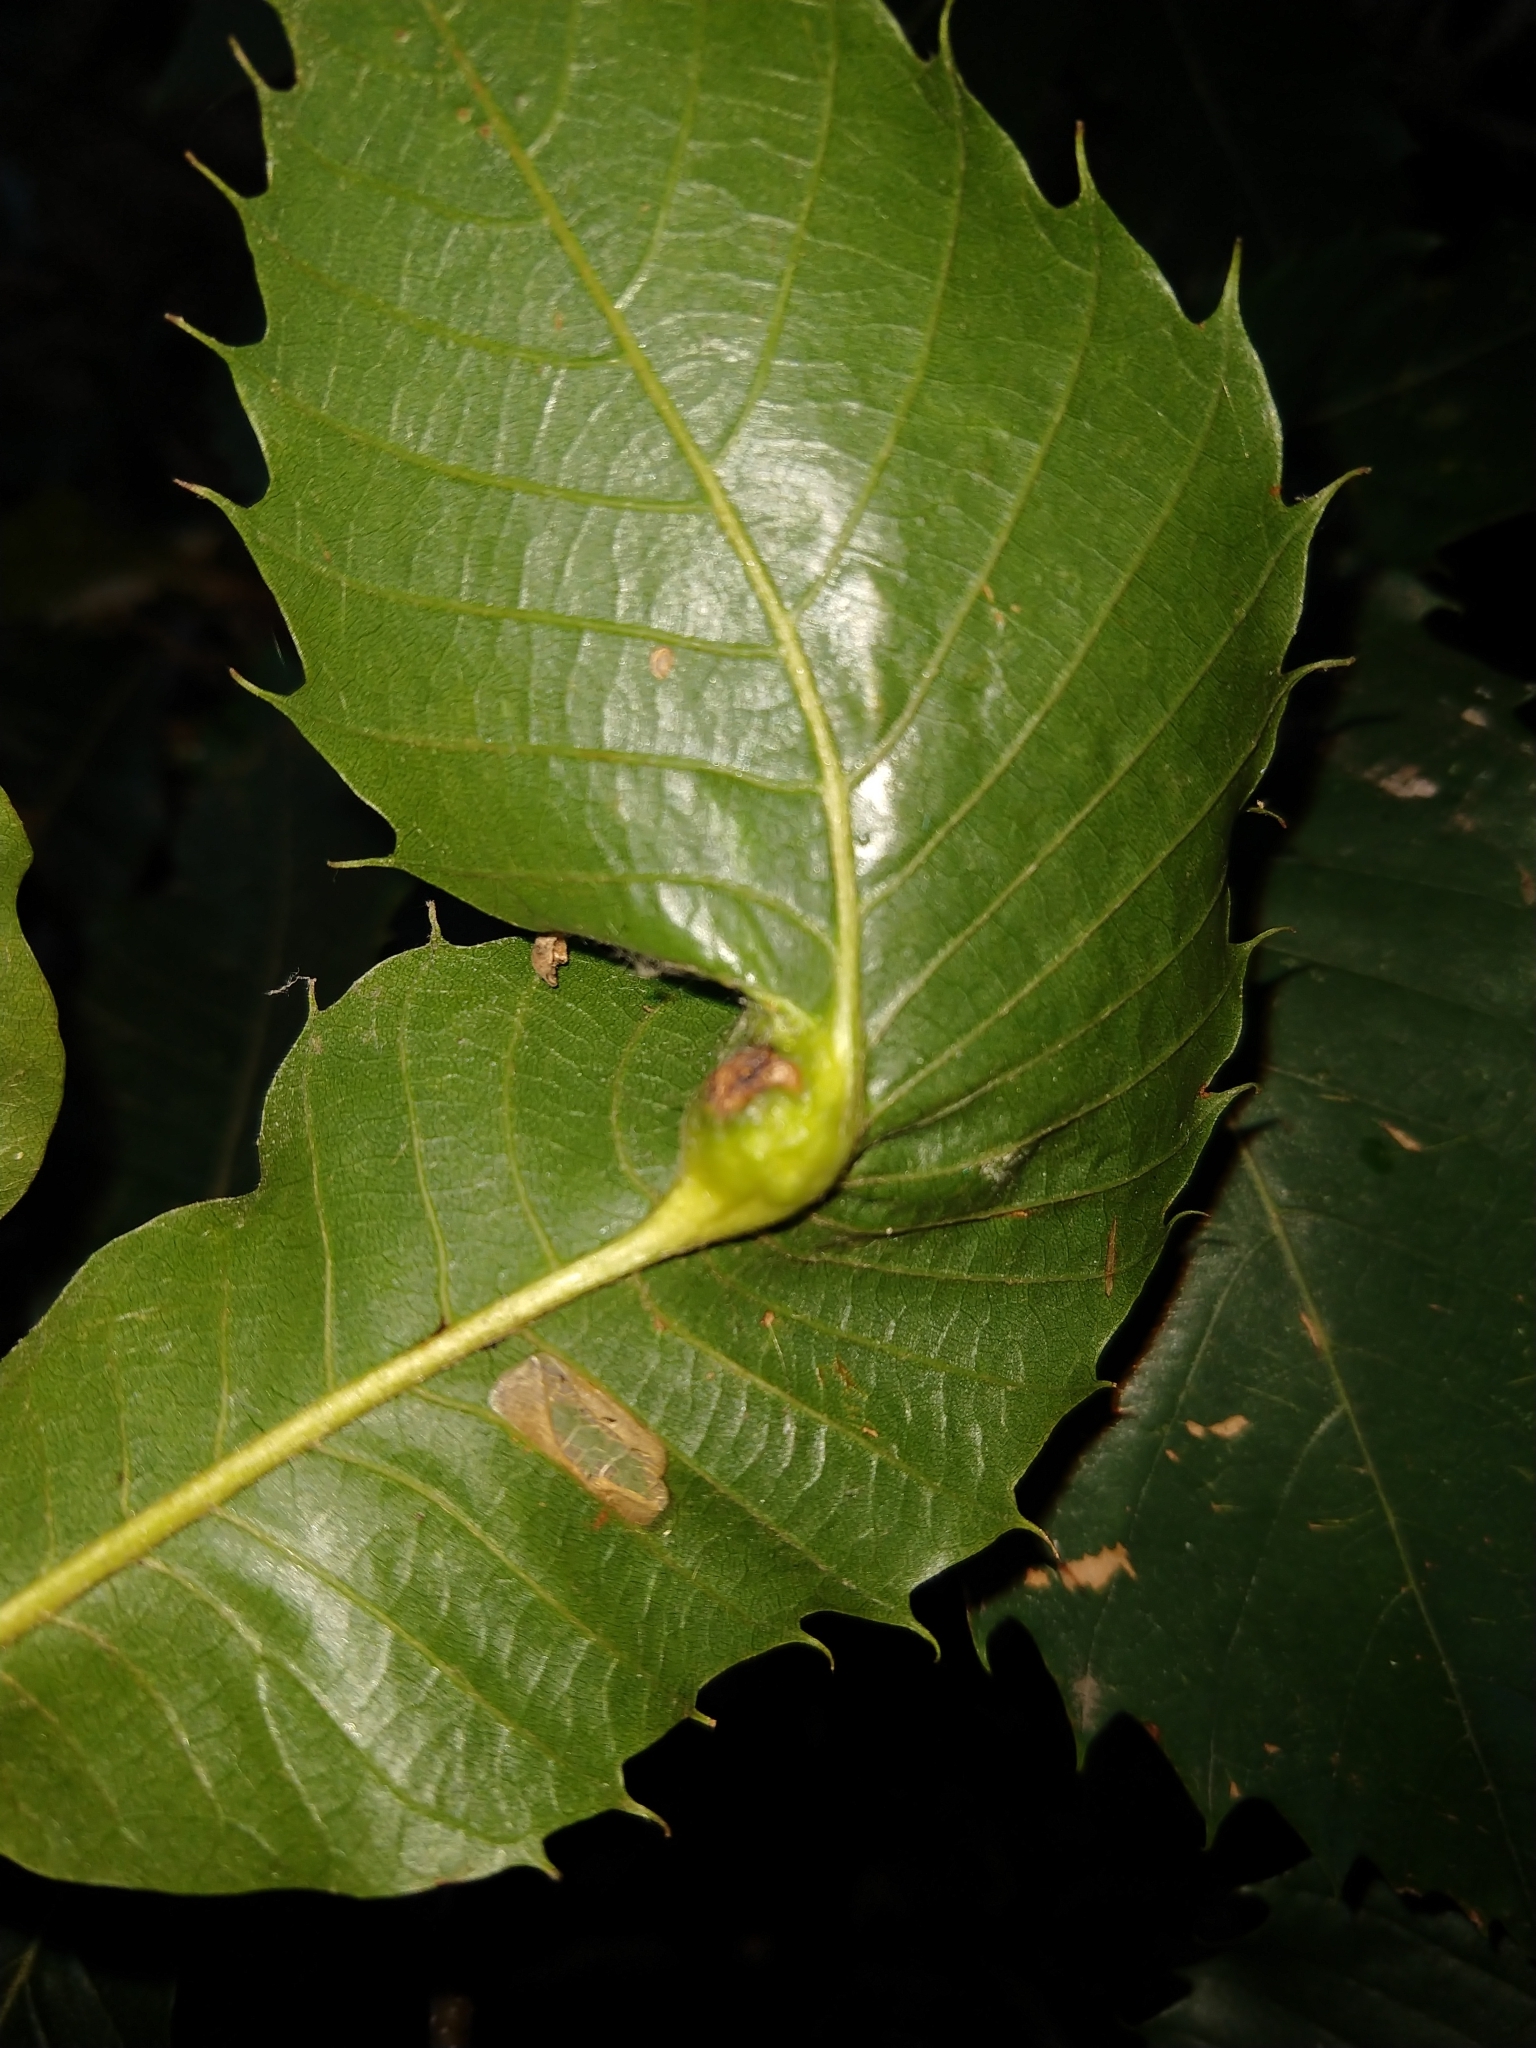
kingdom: Animalia
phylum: Arthropoda
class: Insecta
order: Hymenoptera
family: Cynipidae
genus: Dryocosmus
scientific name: Dryocosmus kuriphilus
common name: Asian chestnut gall wasp
